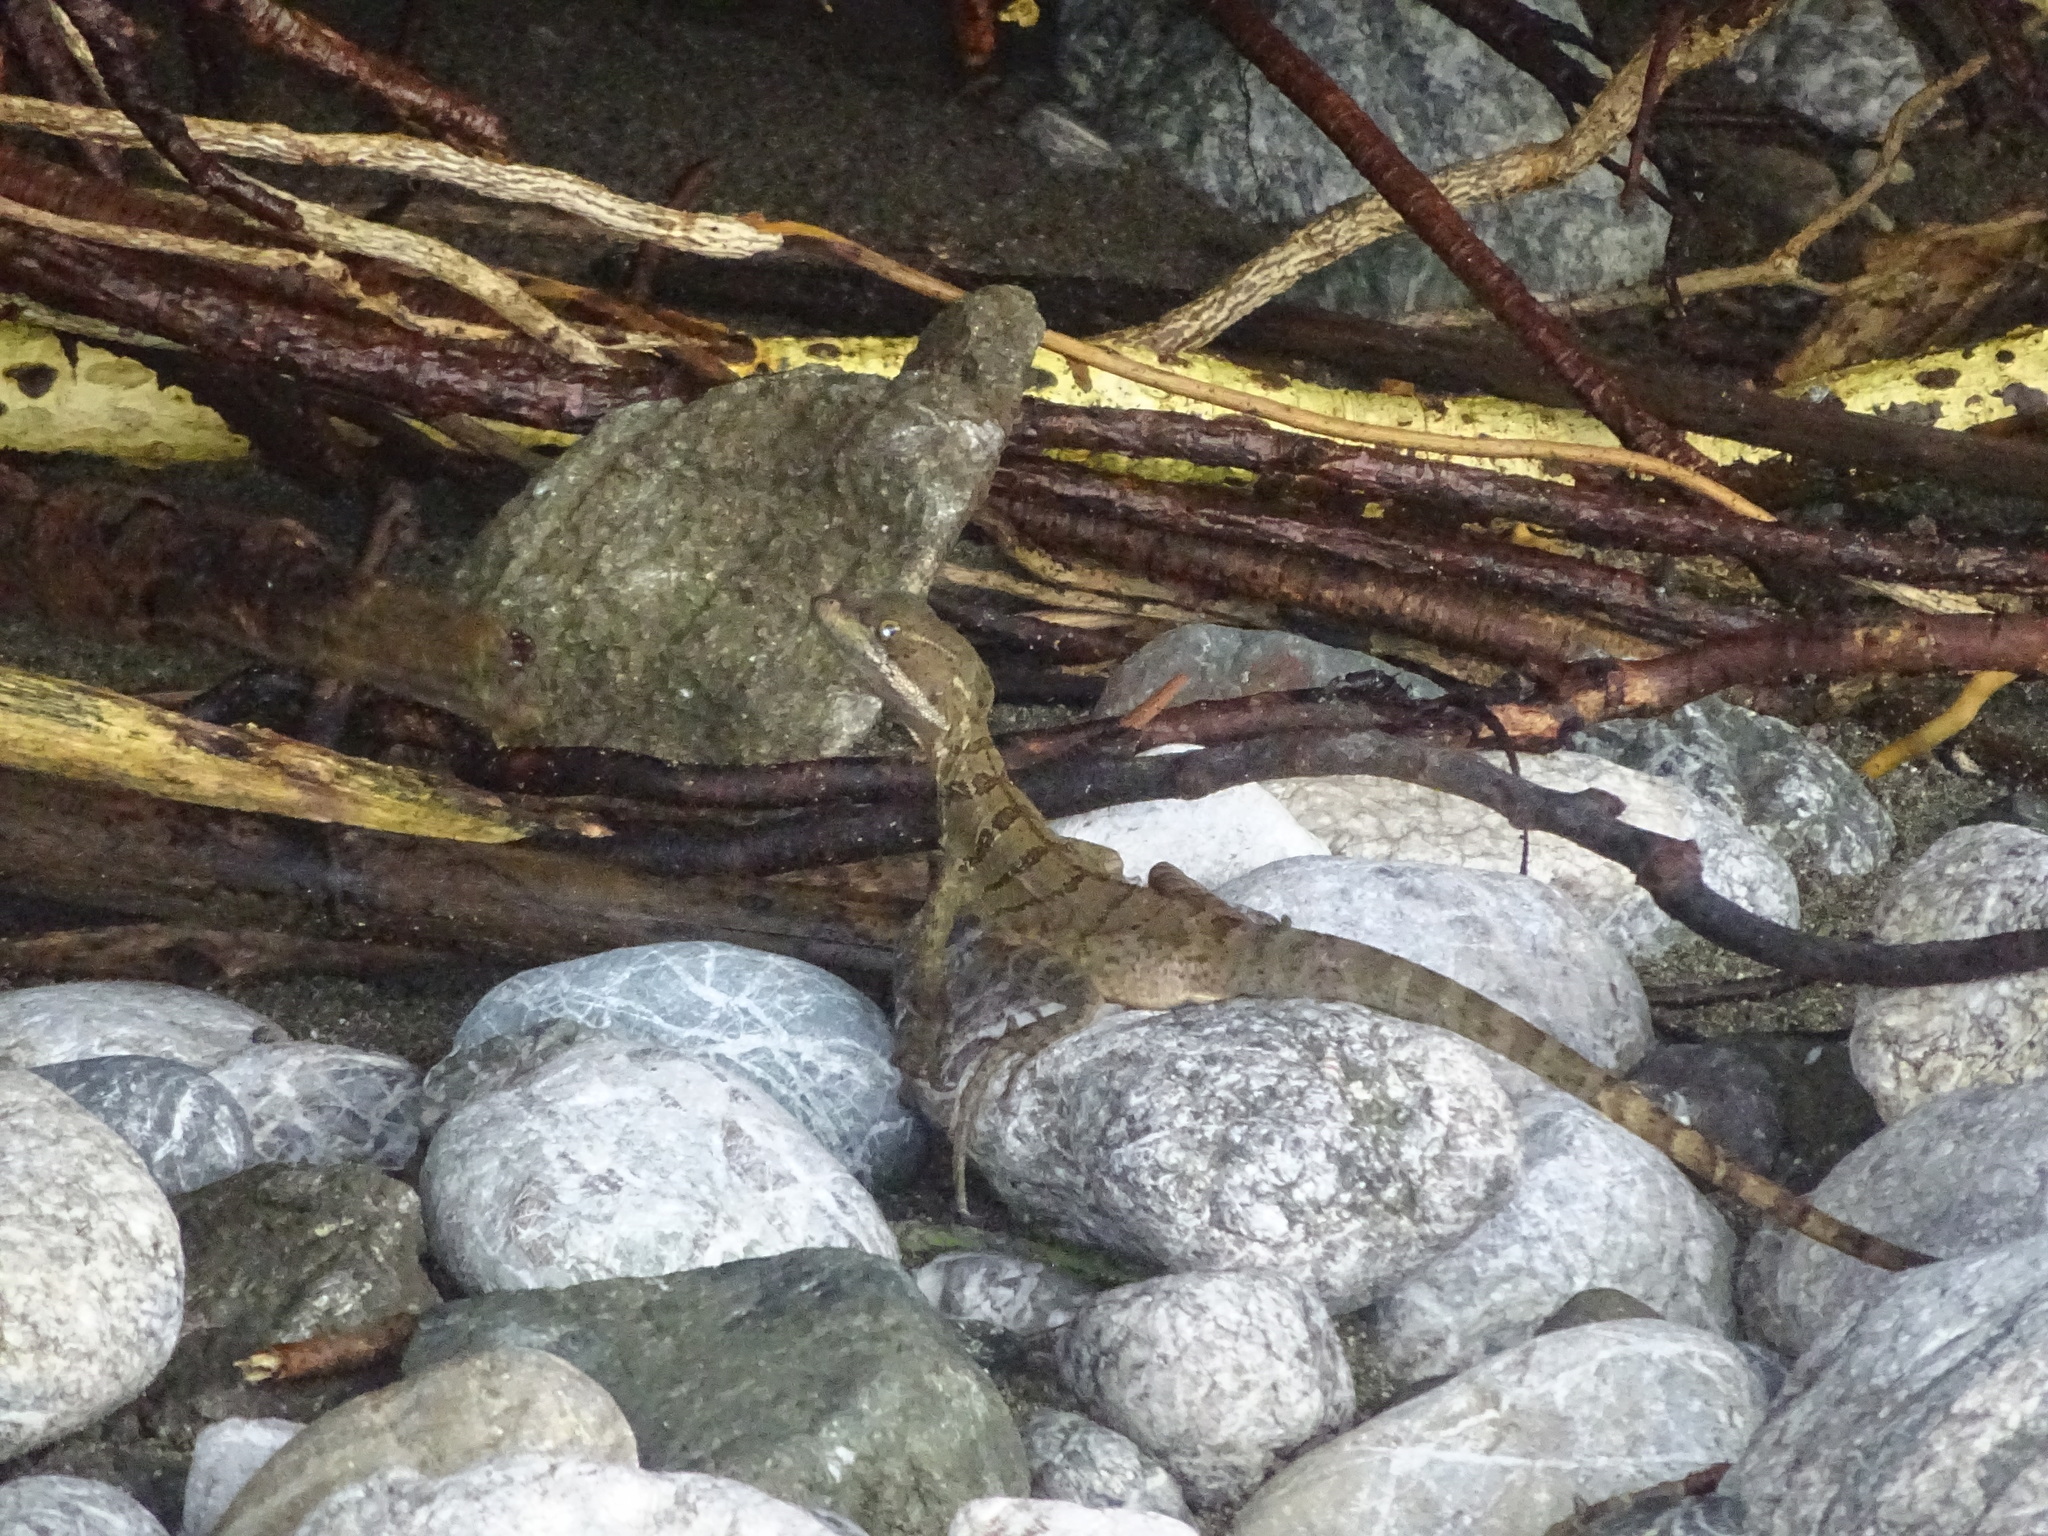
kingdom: Animalia
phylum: Chordata
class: Squamata
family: Corytophanidae
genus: Basiliscus
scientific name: Basiliscus basiliscus
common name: Common basilisk
